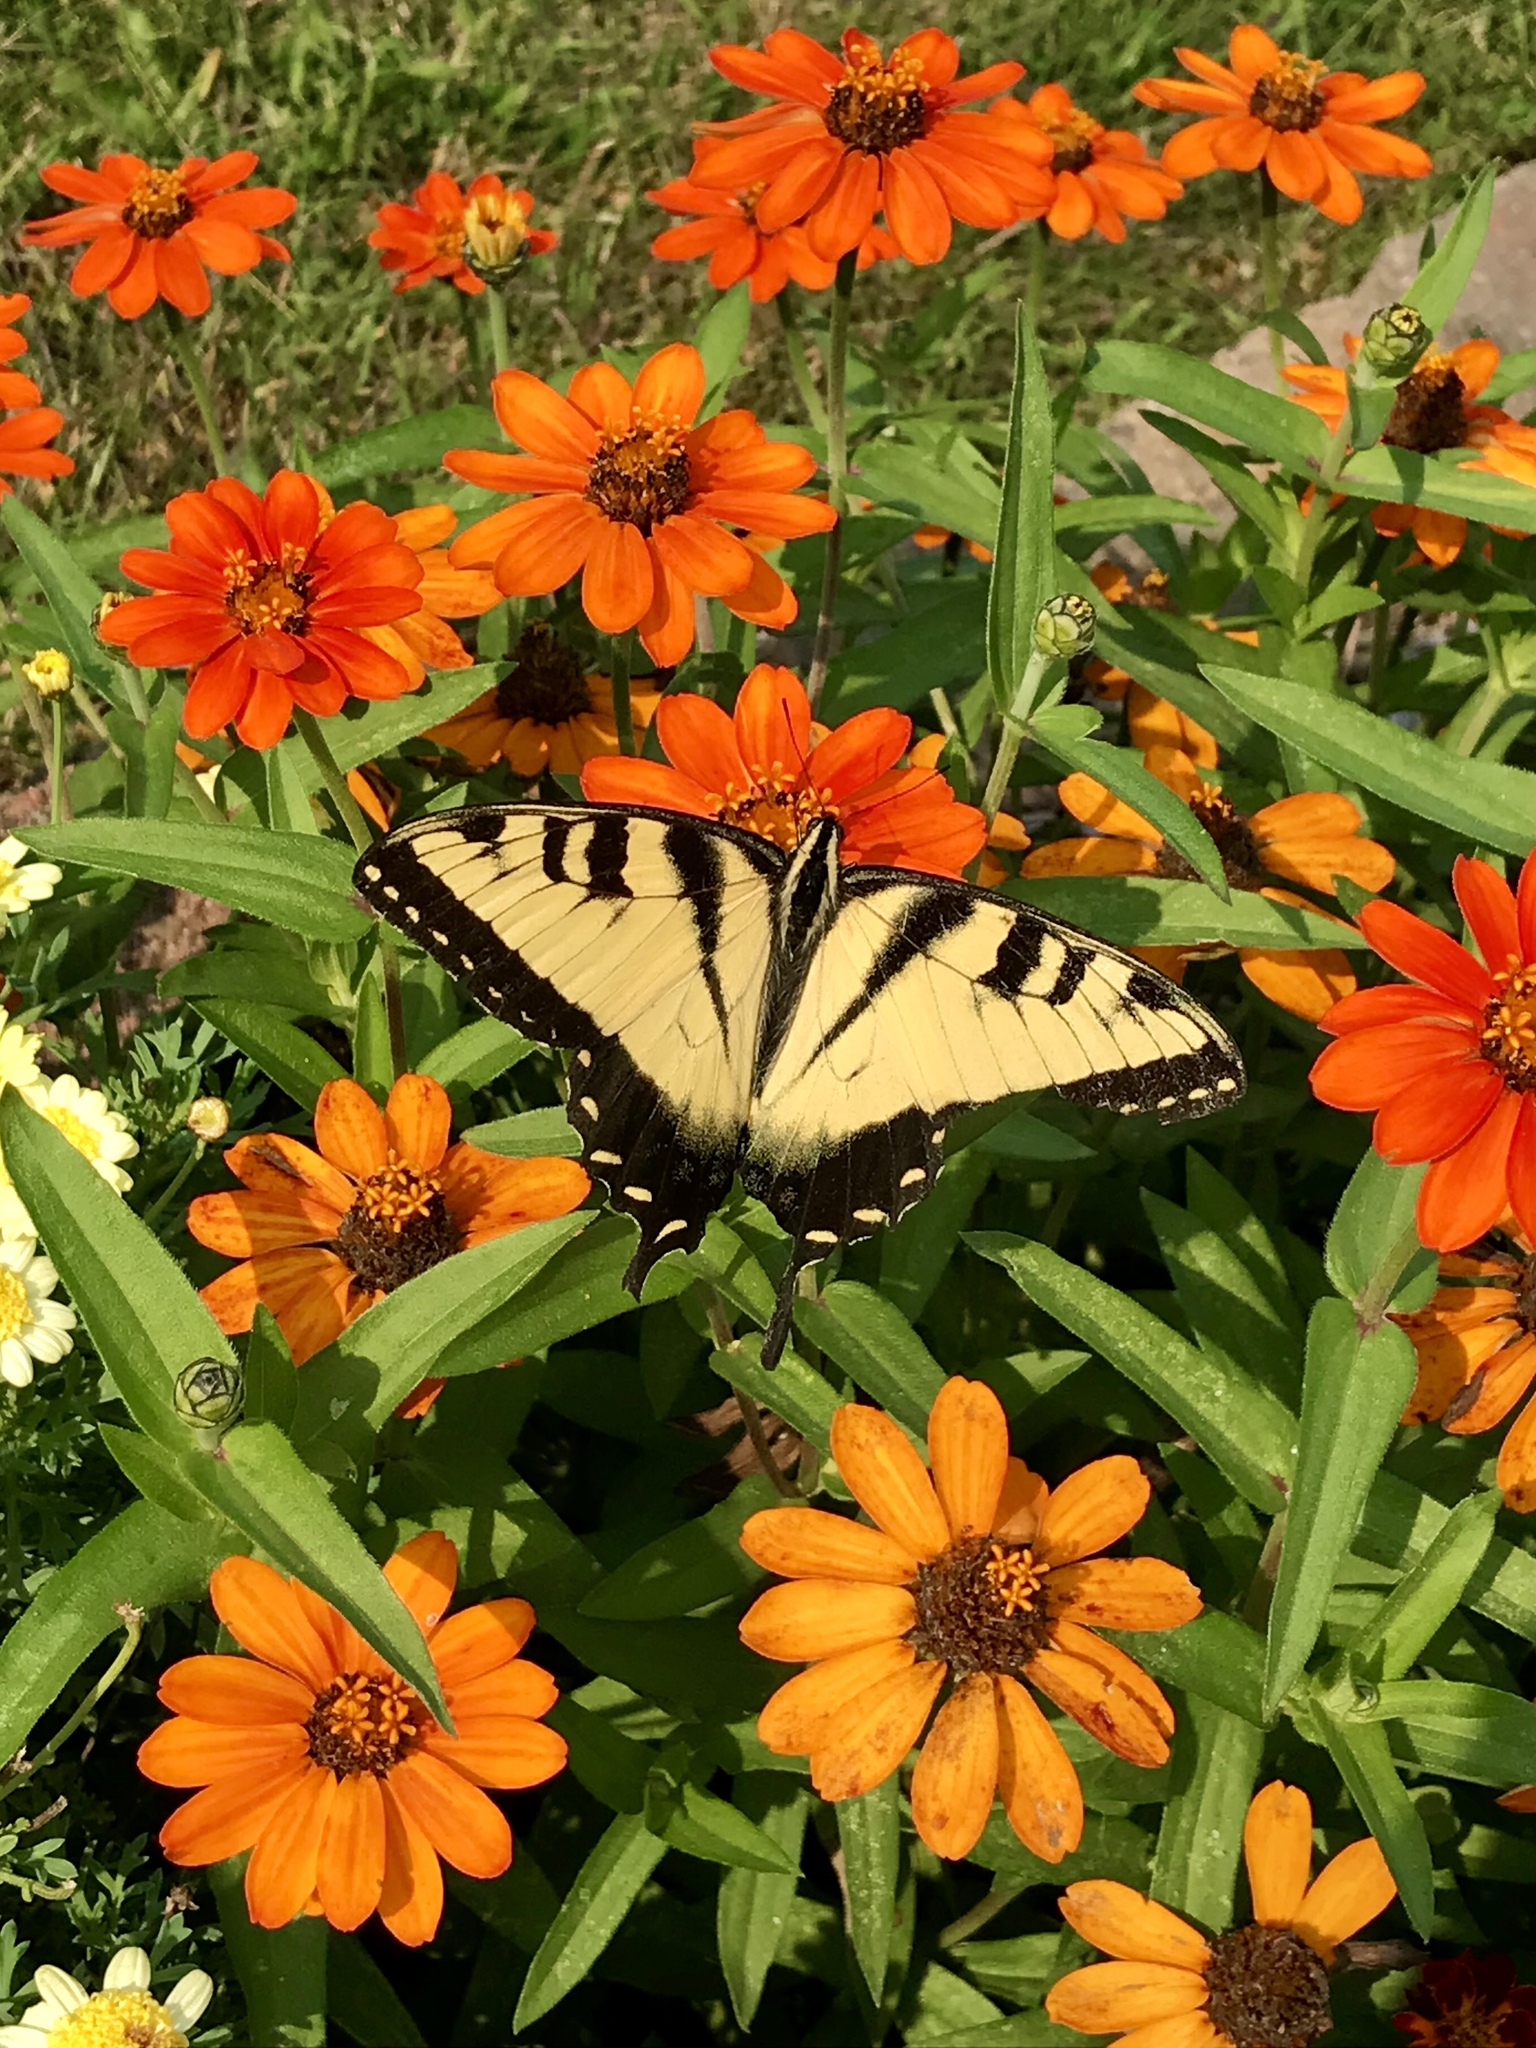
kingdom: Animalia
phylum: Arthropoda
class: Insecta
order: Lepidoptera
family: Papilionidae
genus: Papilio
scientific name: Papilio glaucus
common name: Tiger swallowtail
